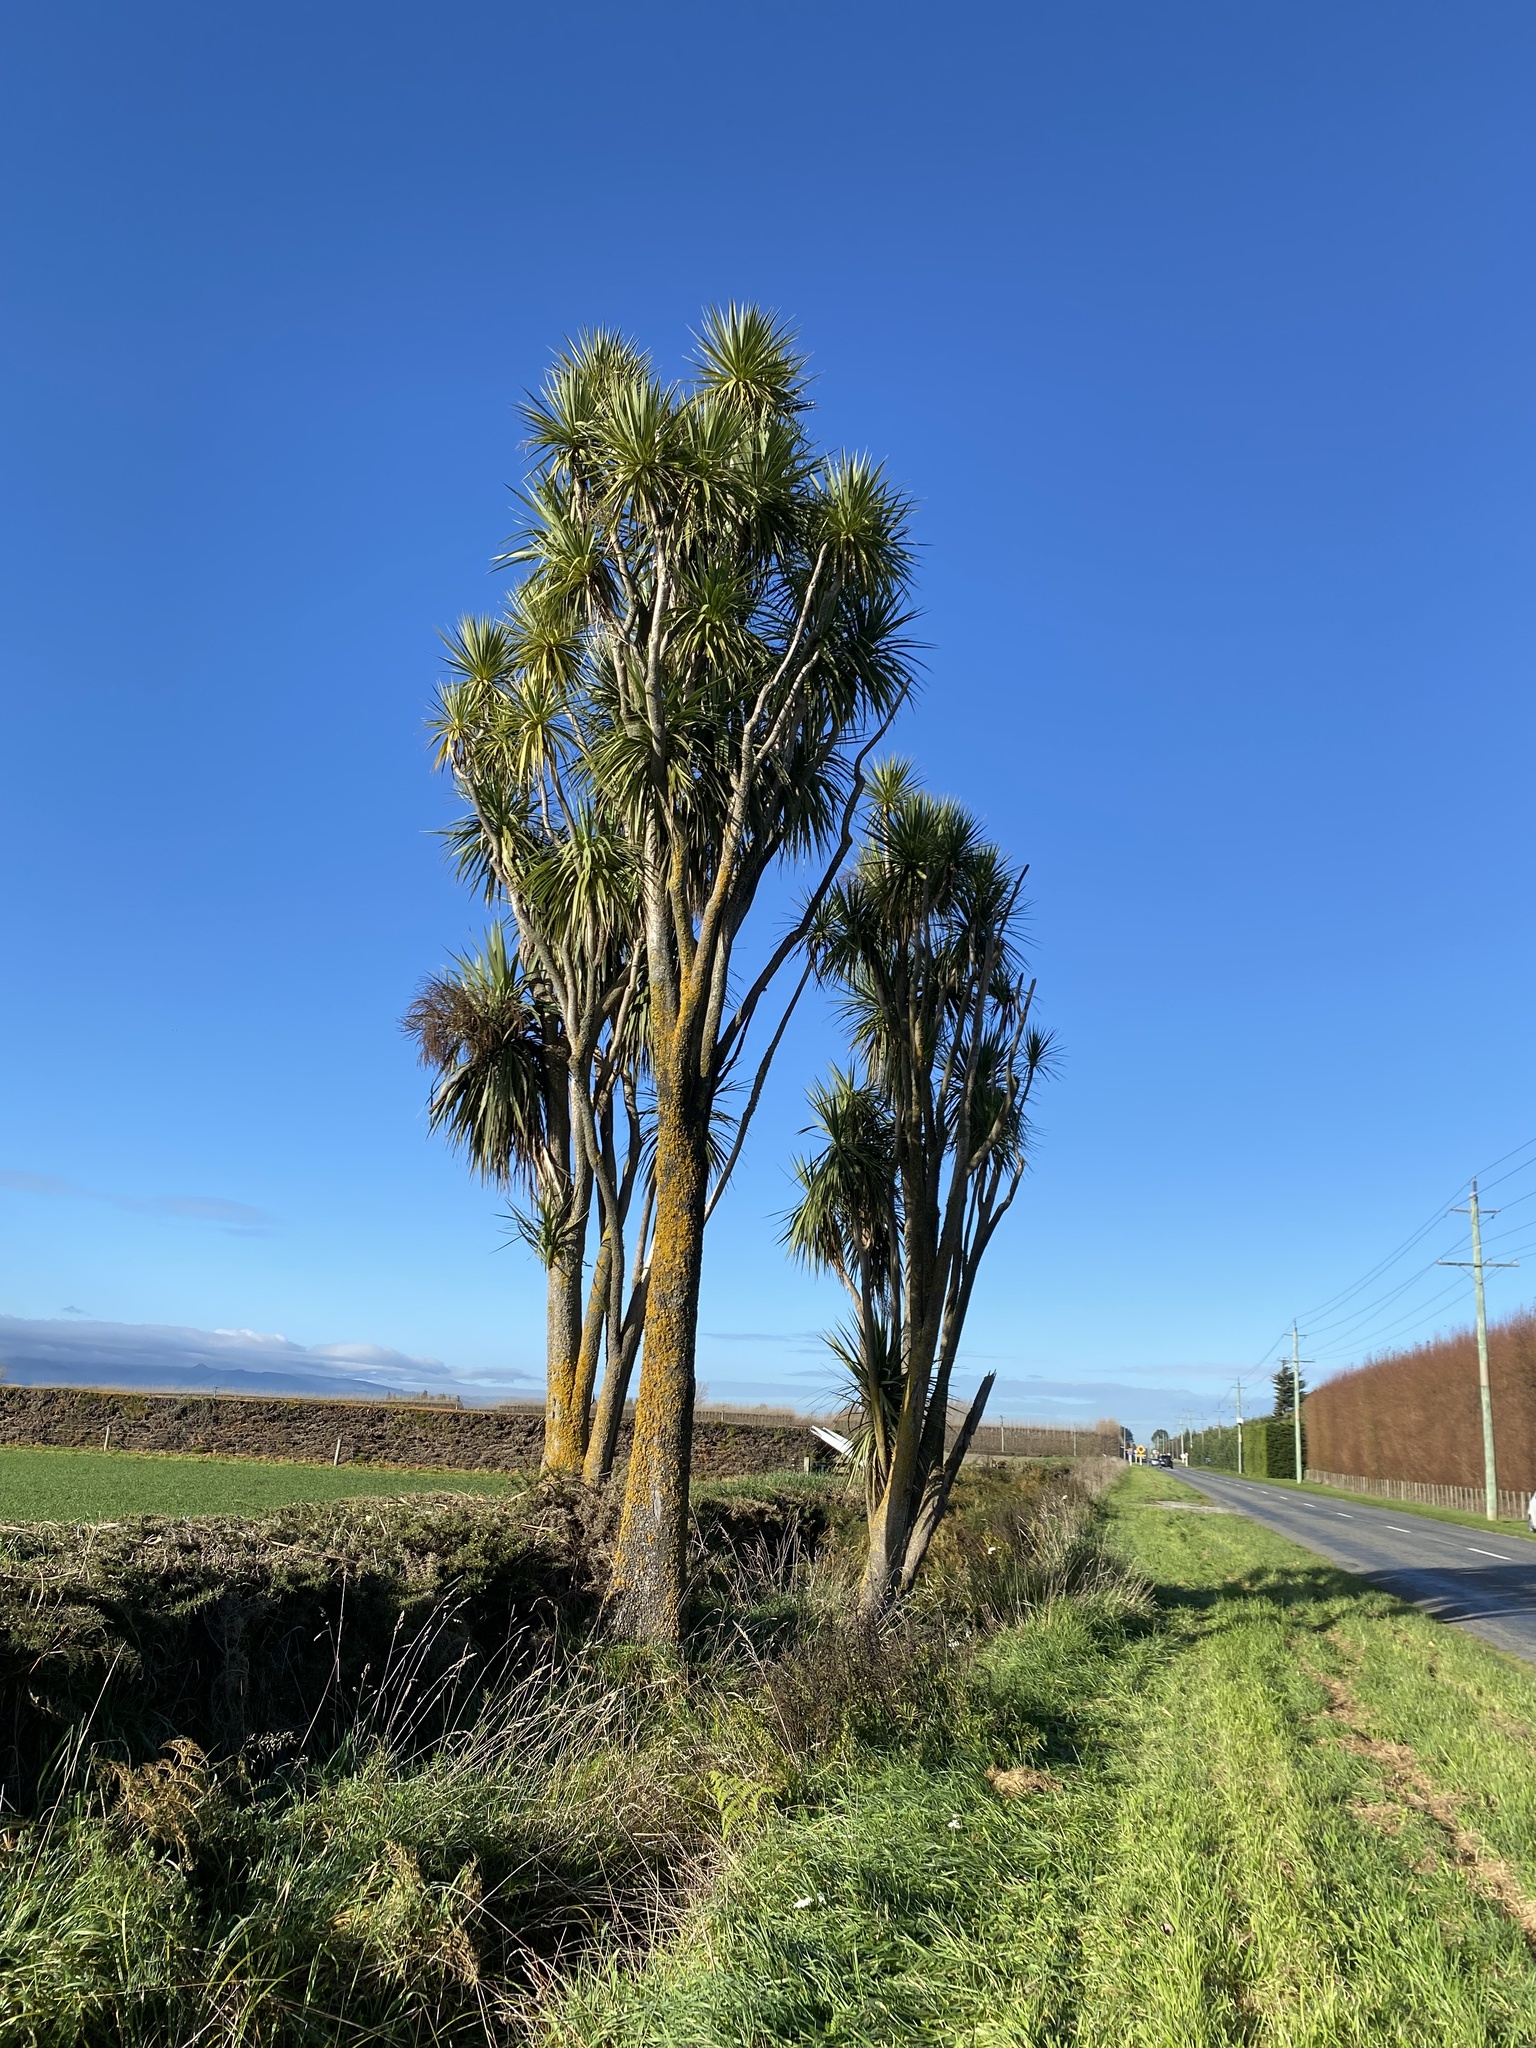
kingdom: Plantae
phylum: Tracheophyta
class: Liliopsida
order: Asparagales
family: Asparagaceae
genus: Cordyline
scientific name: Cordyline australis
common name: Cabbage-palm
